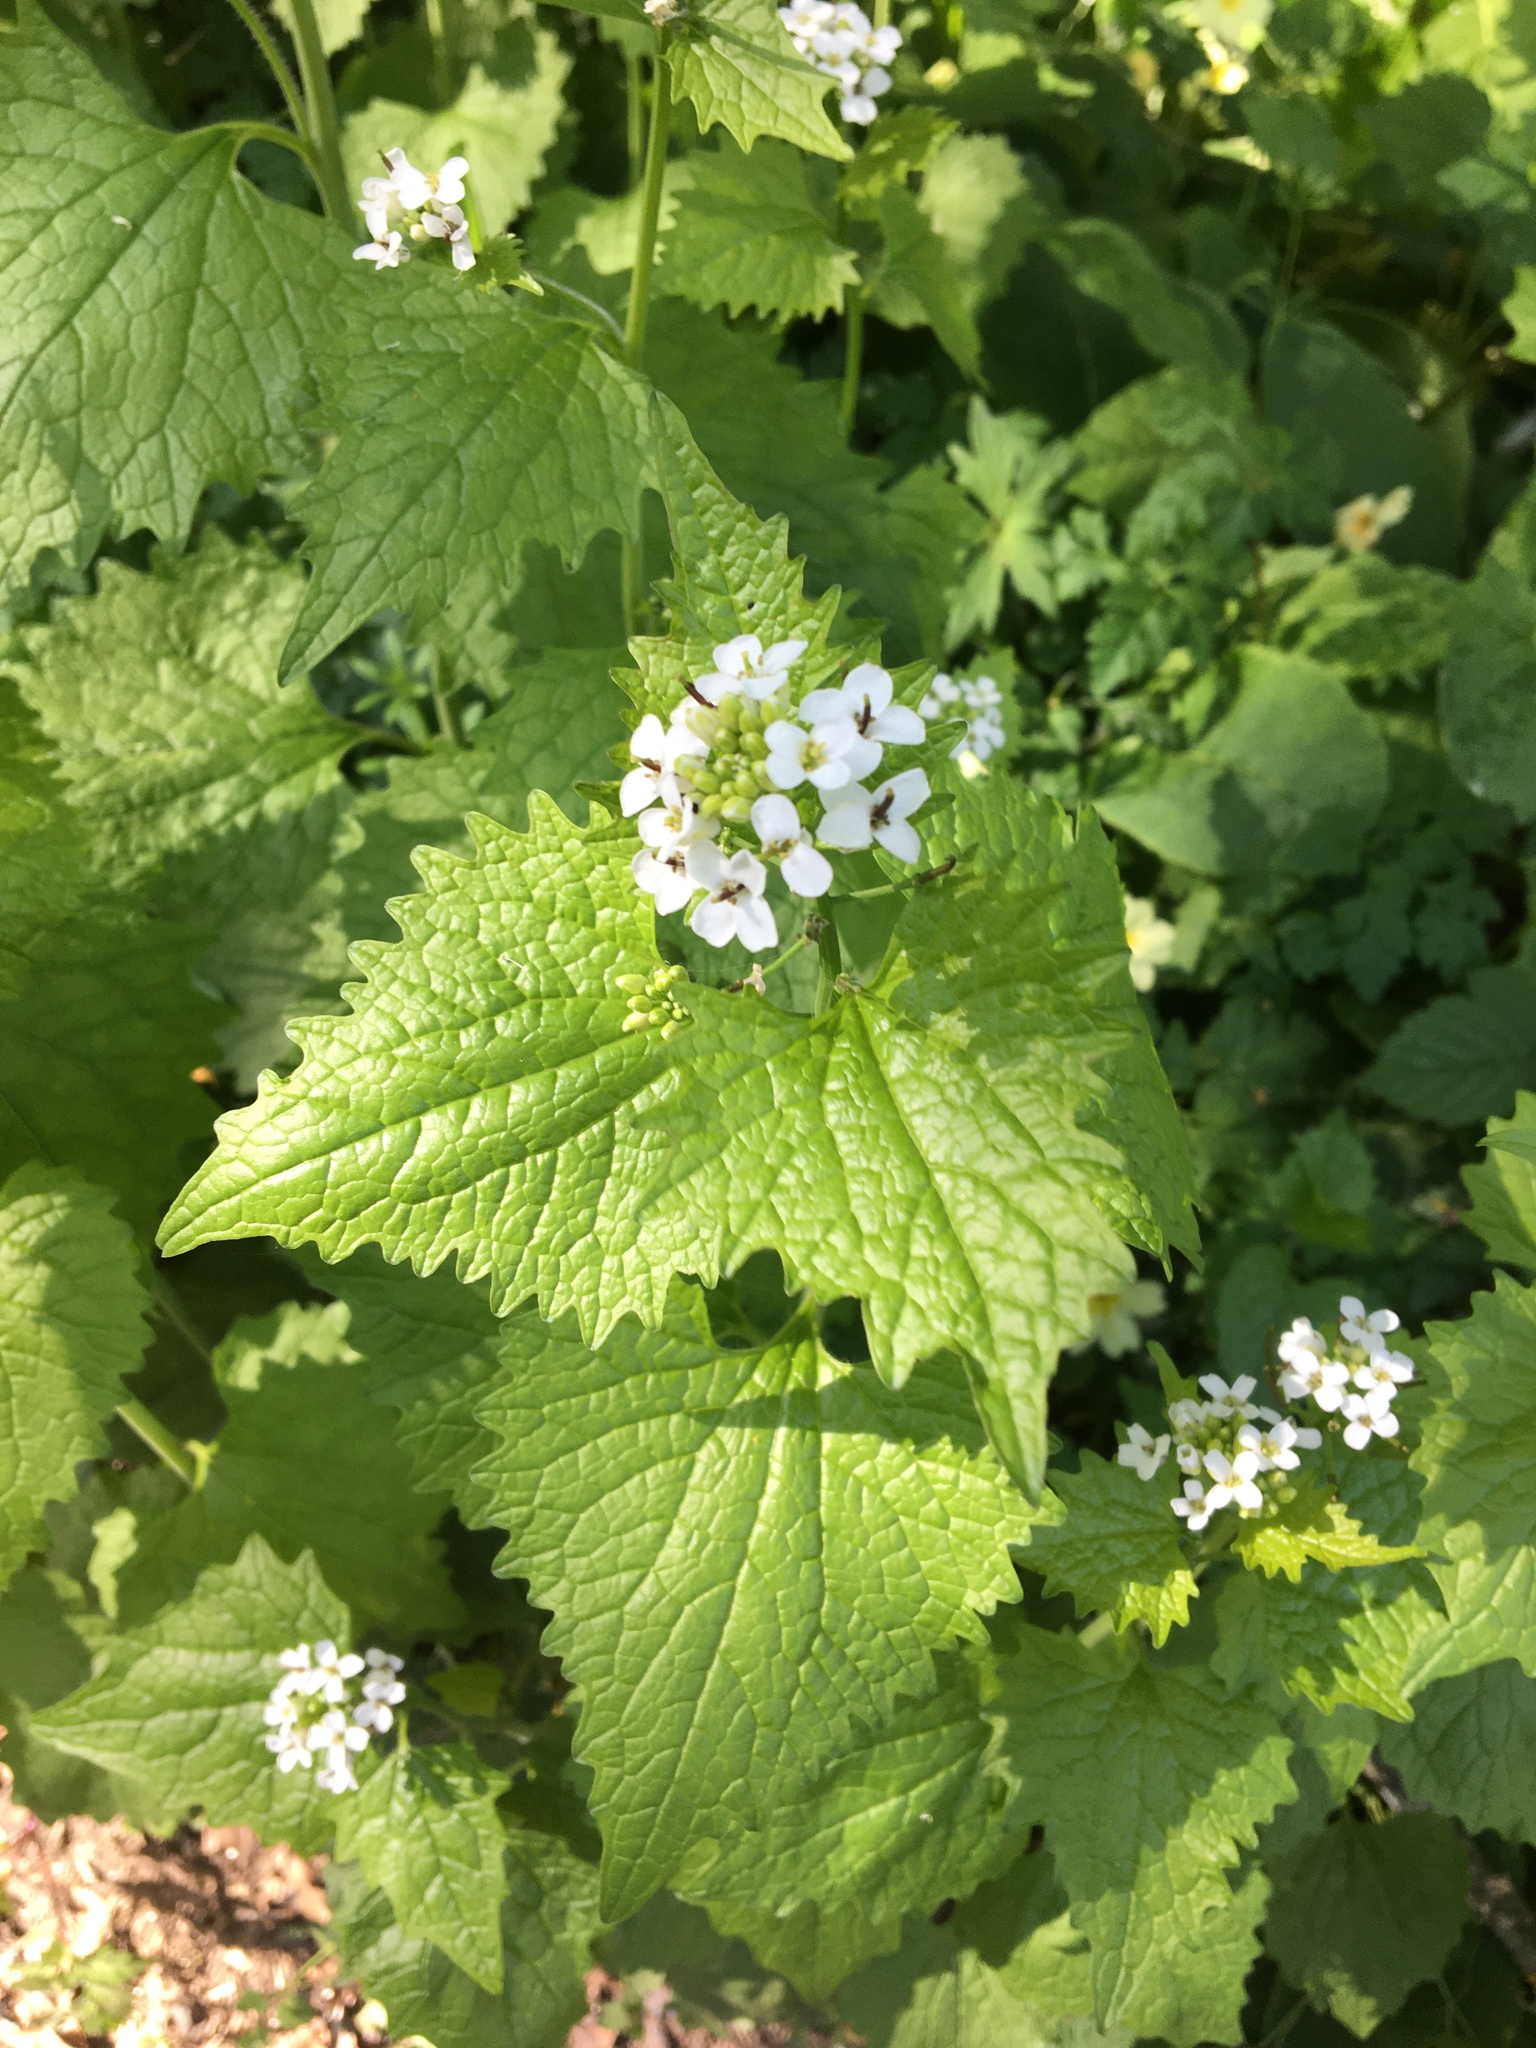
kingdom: Plantae
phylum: Tracheophyta
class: Magnoliopsida
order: Brassicales
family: Brassicaceae
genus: Alliaria
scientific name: Alliaria petiolata
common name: Garlic mustard
